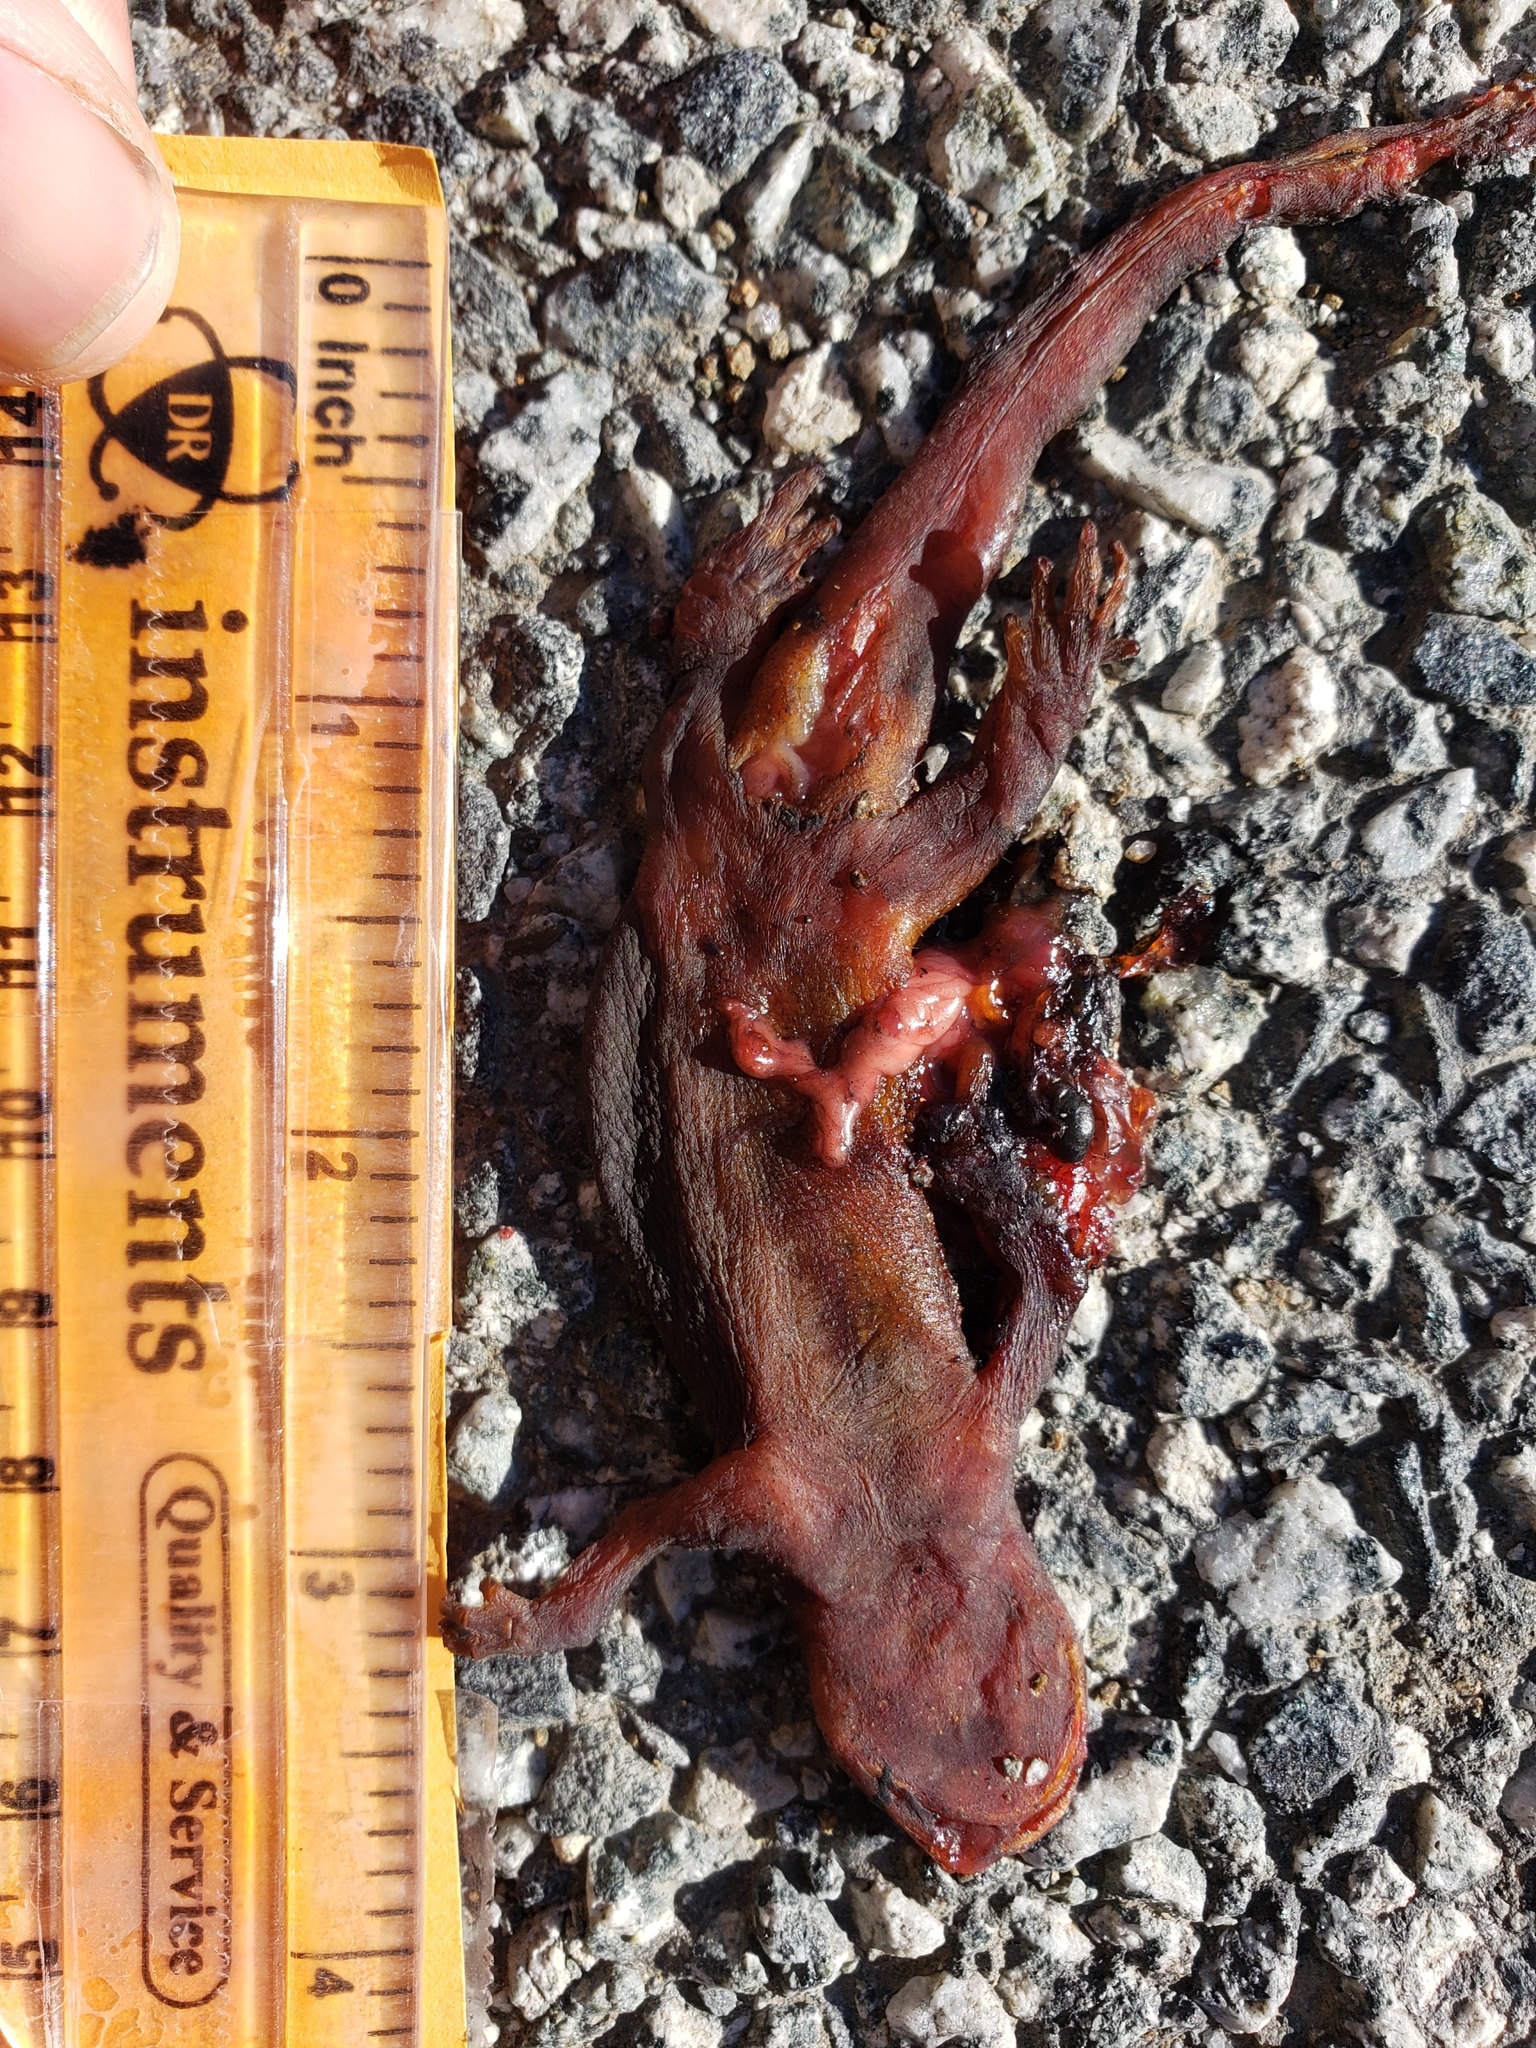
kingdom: Animalia
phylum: Chordata
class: Amphibia
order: Caudata
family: Salamandridae
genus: Taricha
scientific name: Taricha
